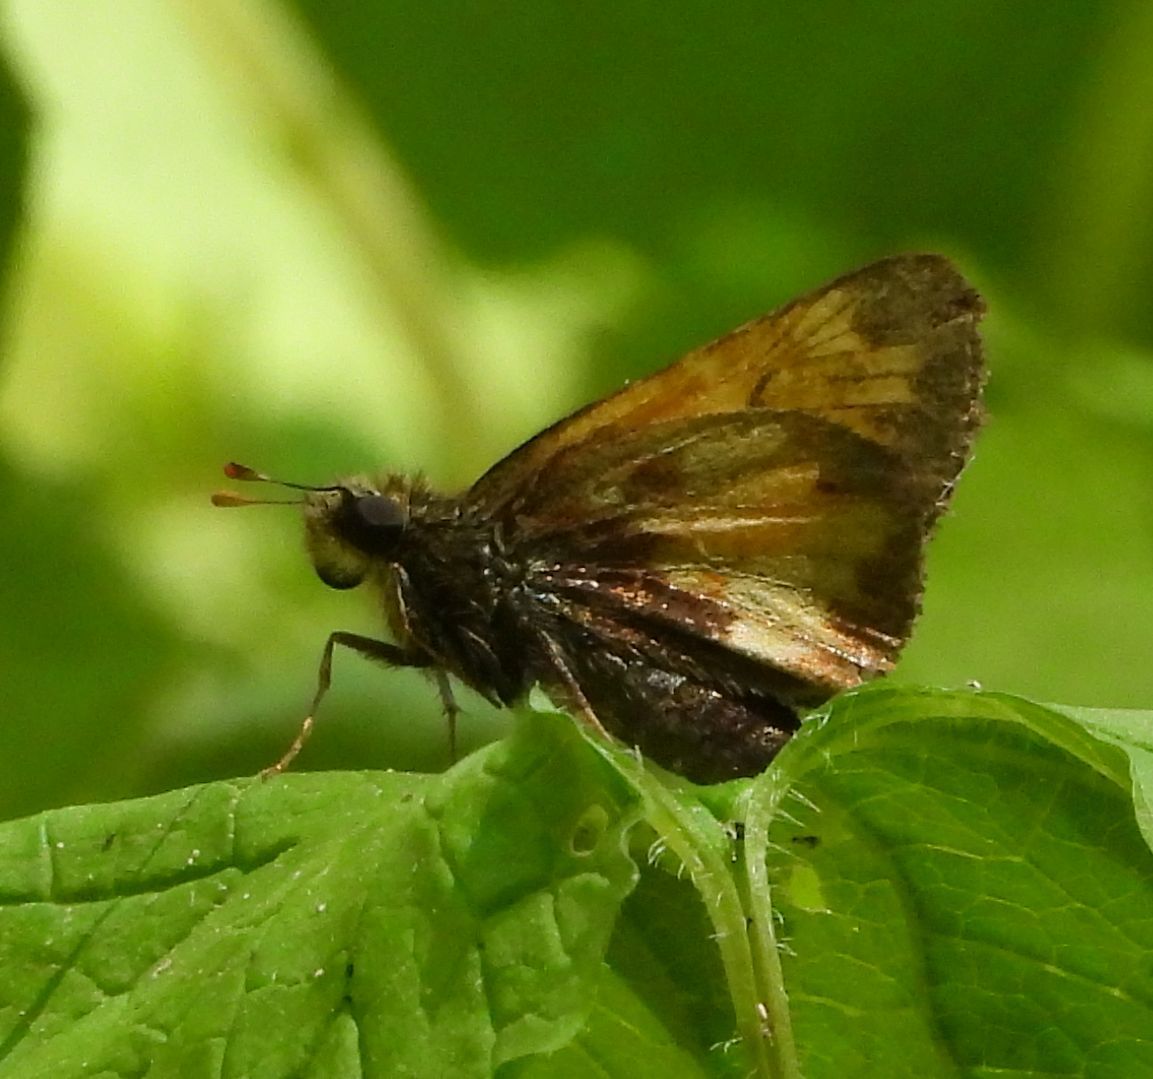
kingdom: Animalia
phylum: Arthropoda
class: Insecta
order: Lepidoptera
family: Hesperiidae
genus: Lon
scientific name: Lon hobomok
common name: Hobomok skipper
